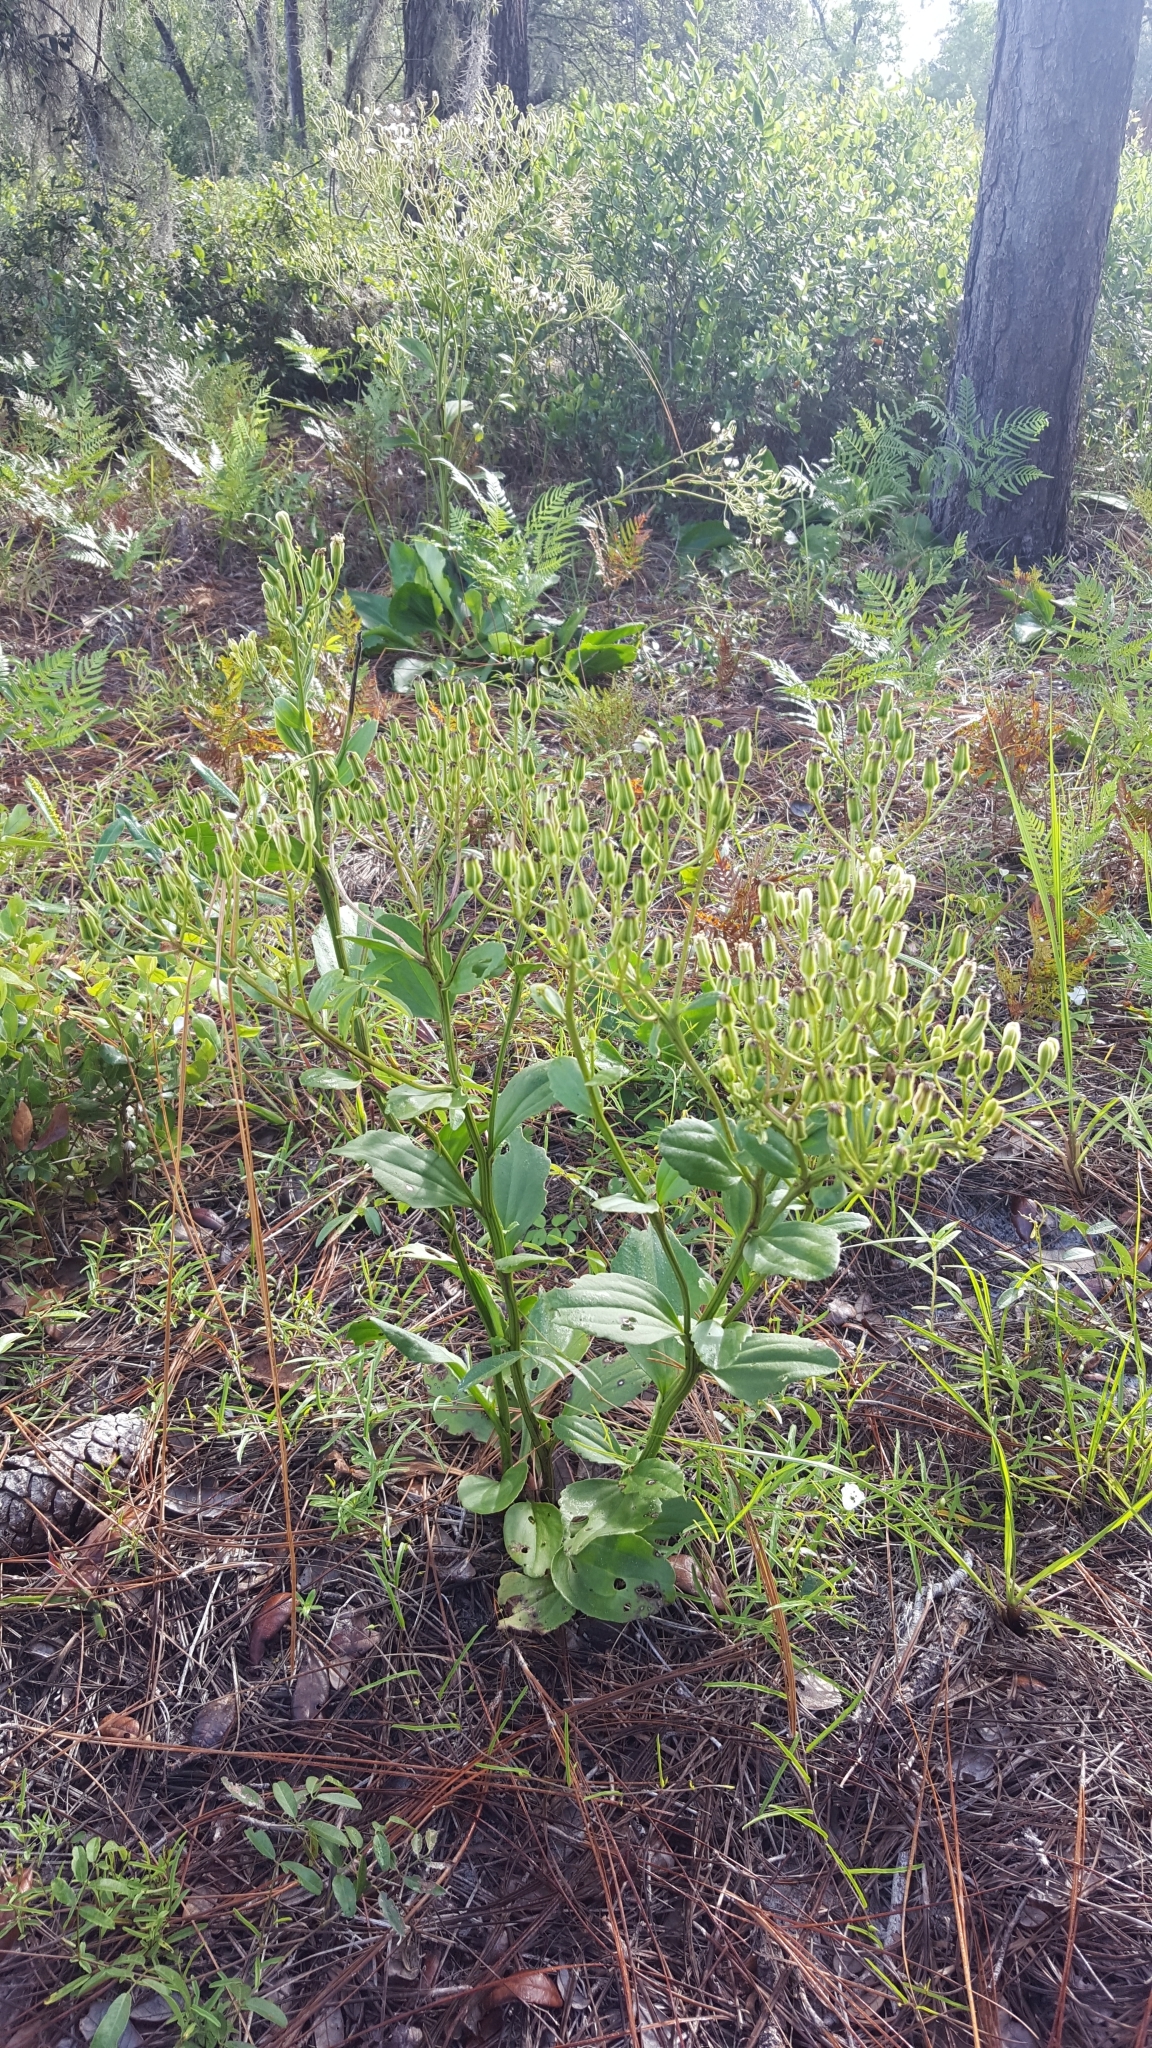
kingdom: Plantae
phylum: Tracheophyta
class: Magnoliopsida
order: Asterales
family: Asteraceae
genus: Arnoglossum
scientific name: Arnoglossum floridanum
